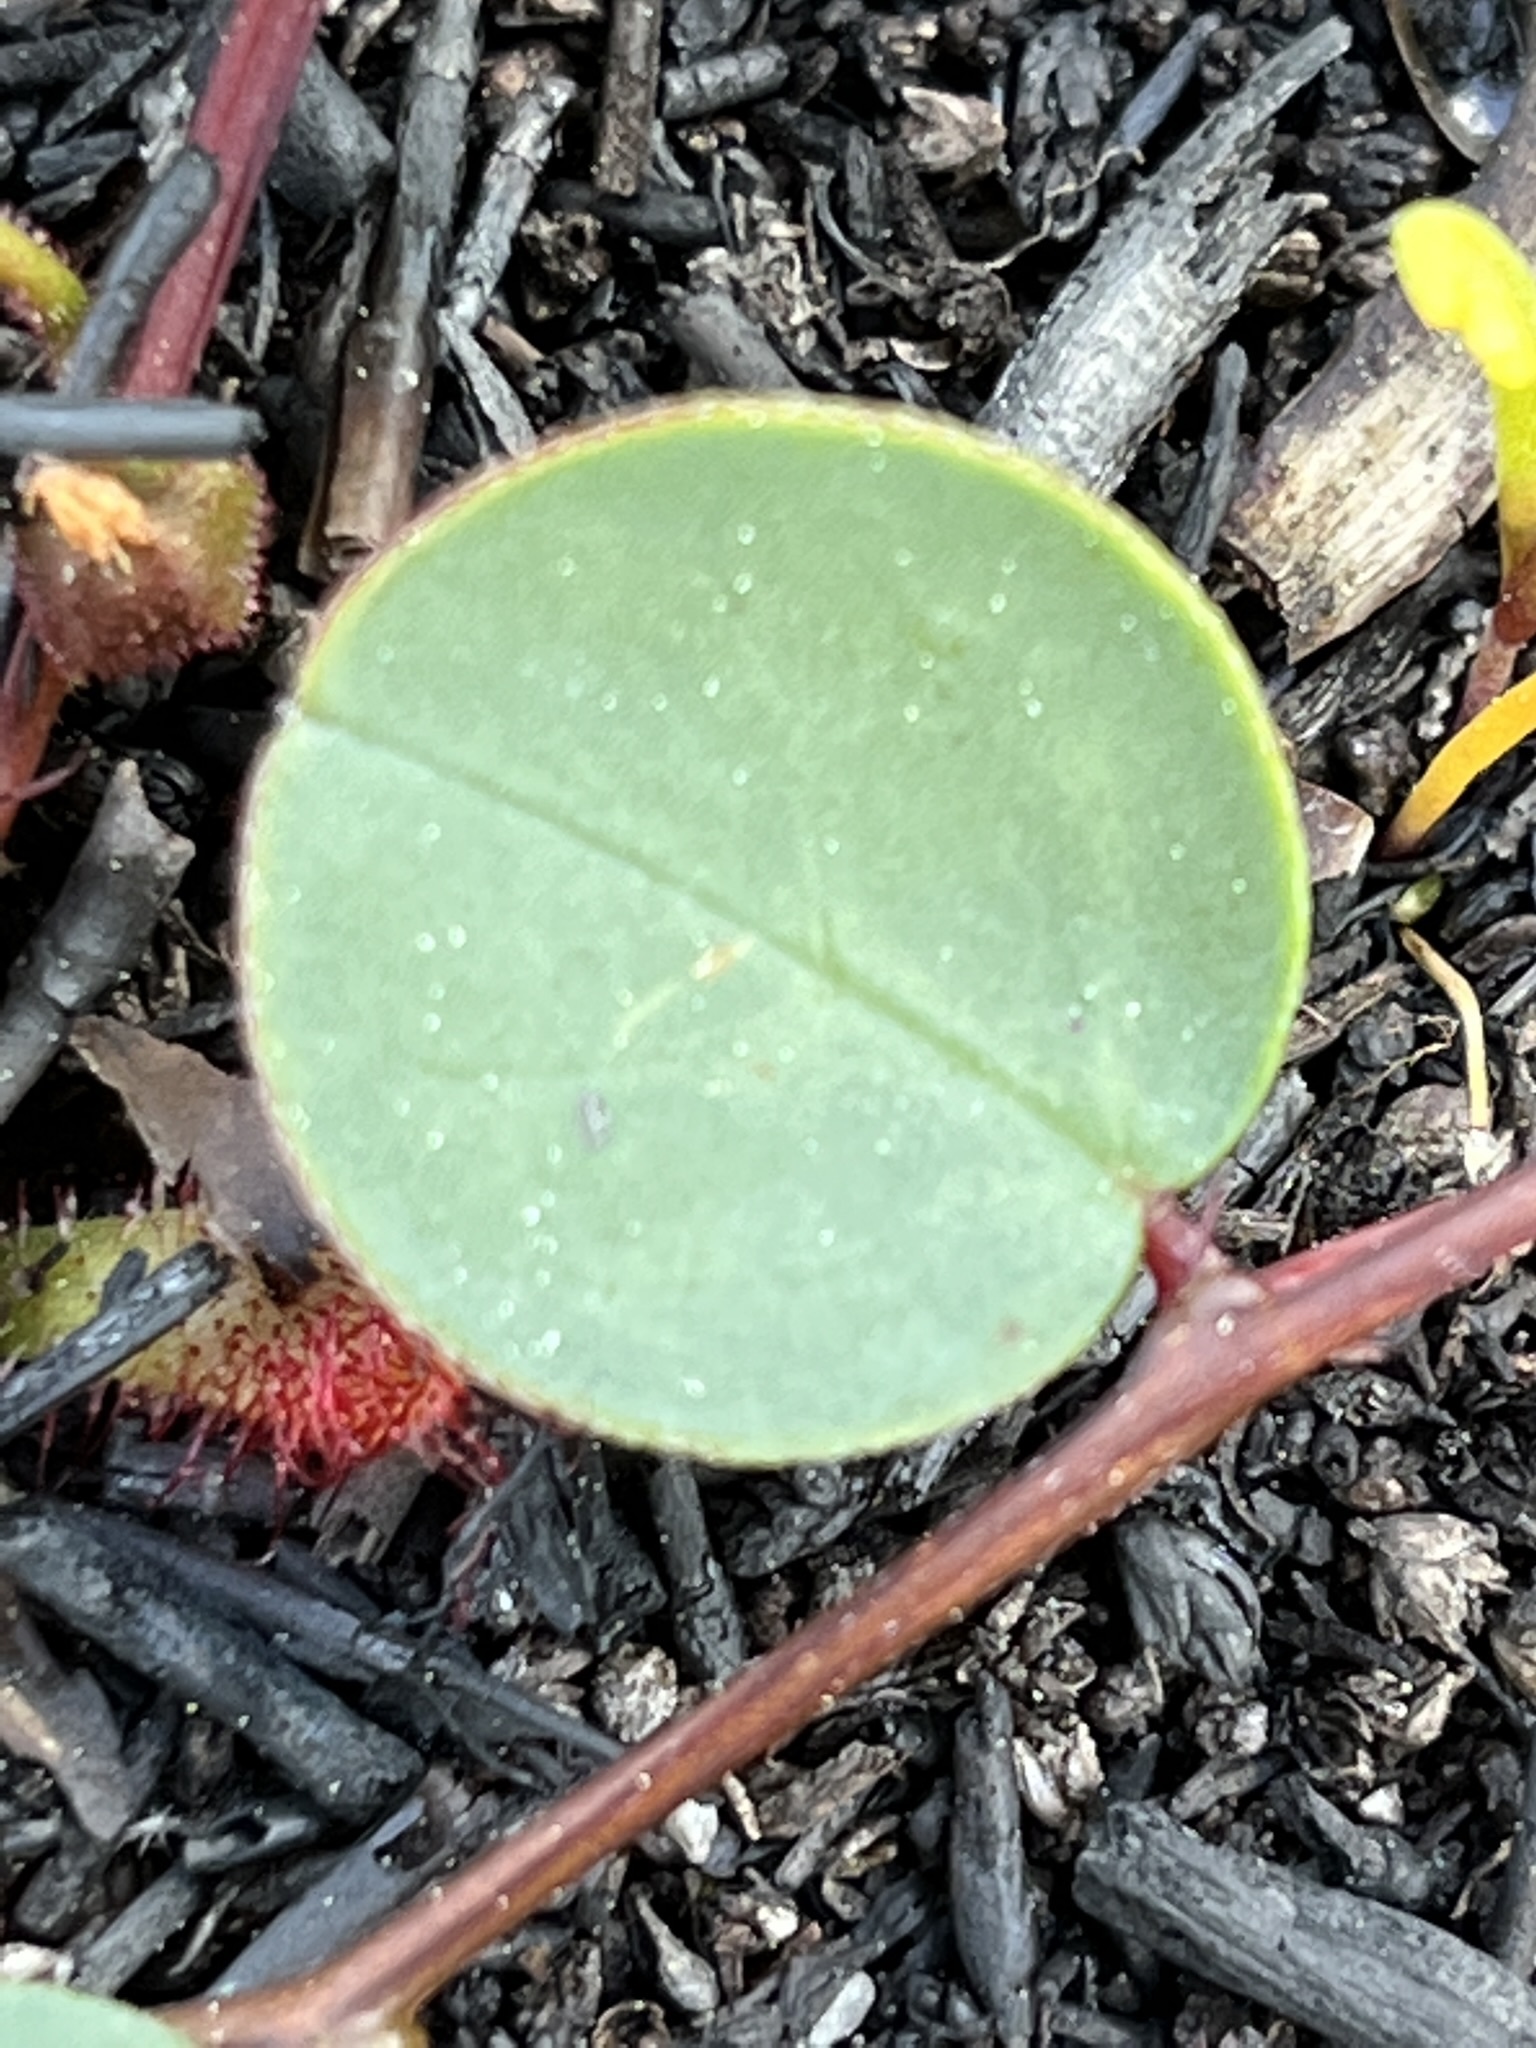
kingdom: Plantae
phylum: Tracheophyta
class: Magnoliopsida
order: Fabales
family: Fabaceae
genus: Indigofera
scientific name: Indigofera ovata
